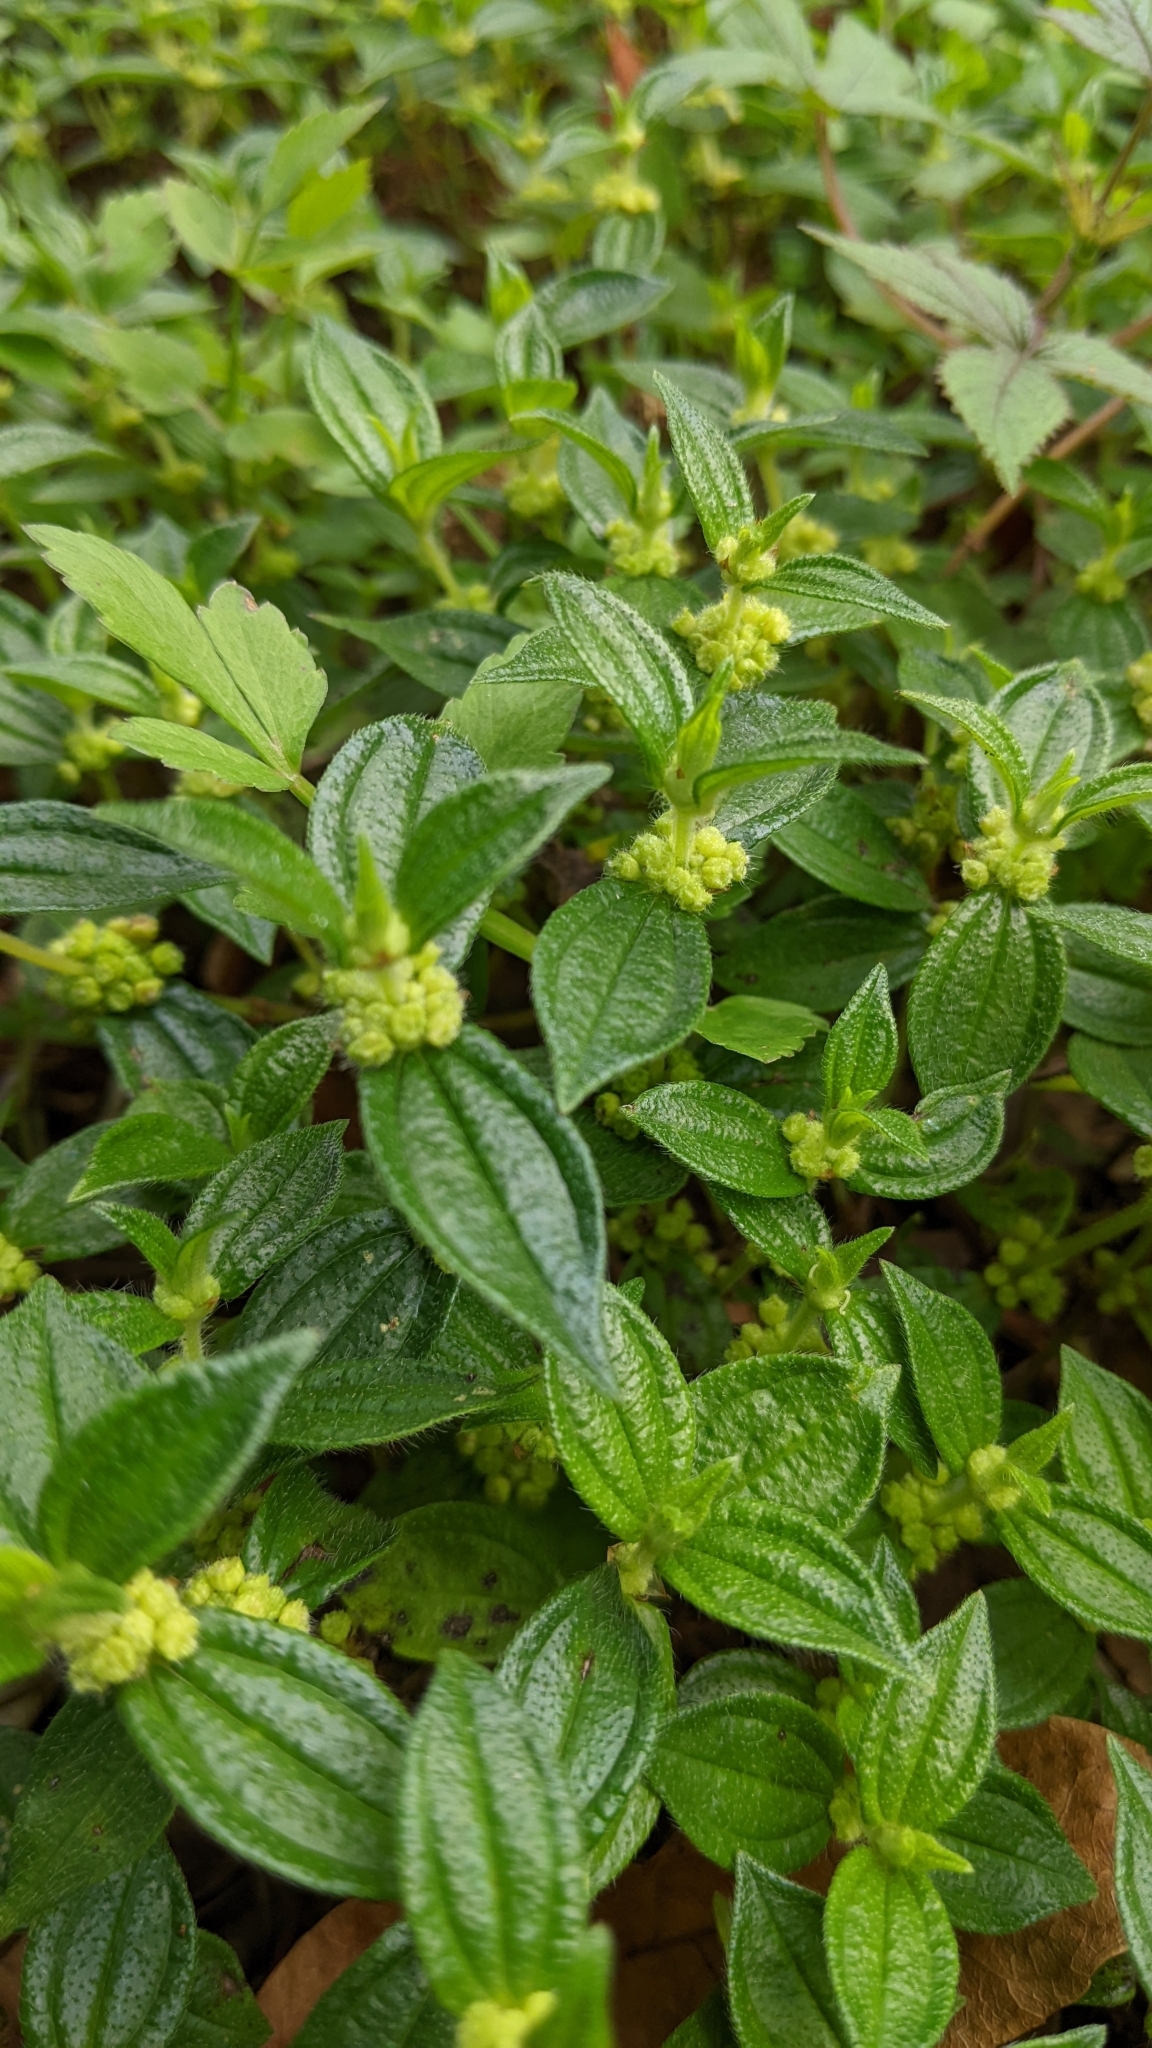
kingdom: Plantae
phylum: Tracheophyta
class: Magnoliopsida
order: Rosales
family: Urticaceae
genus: Gonostegia
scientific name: Gonostegia triandra
